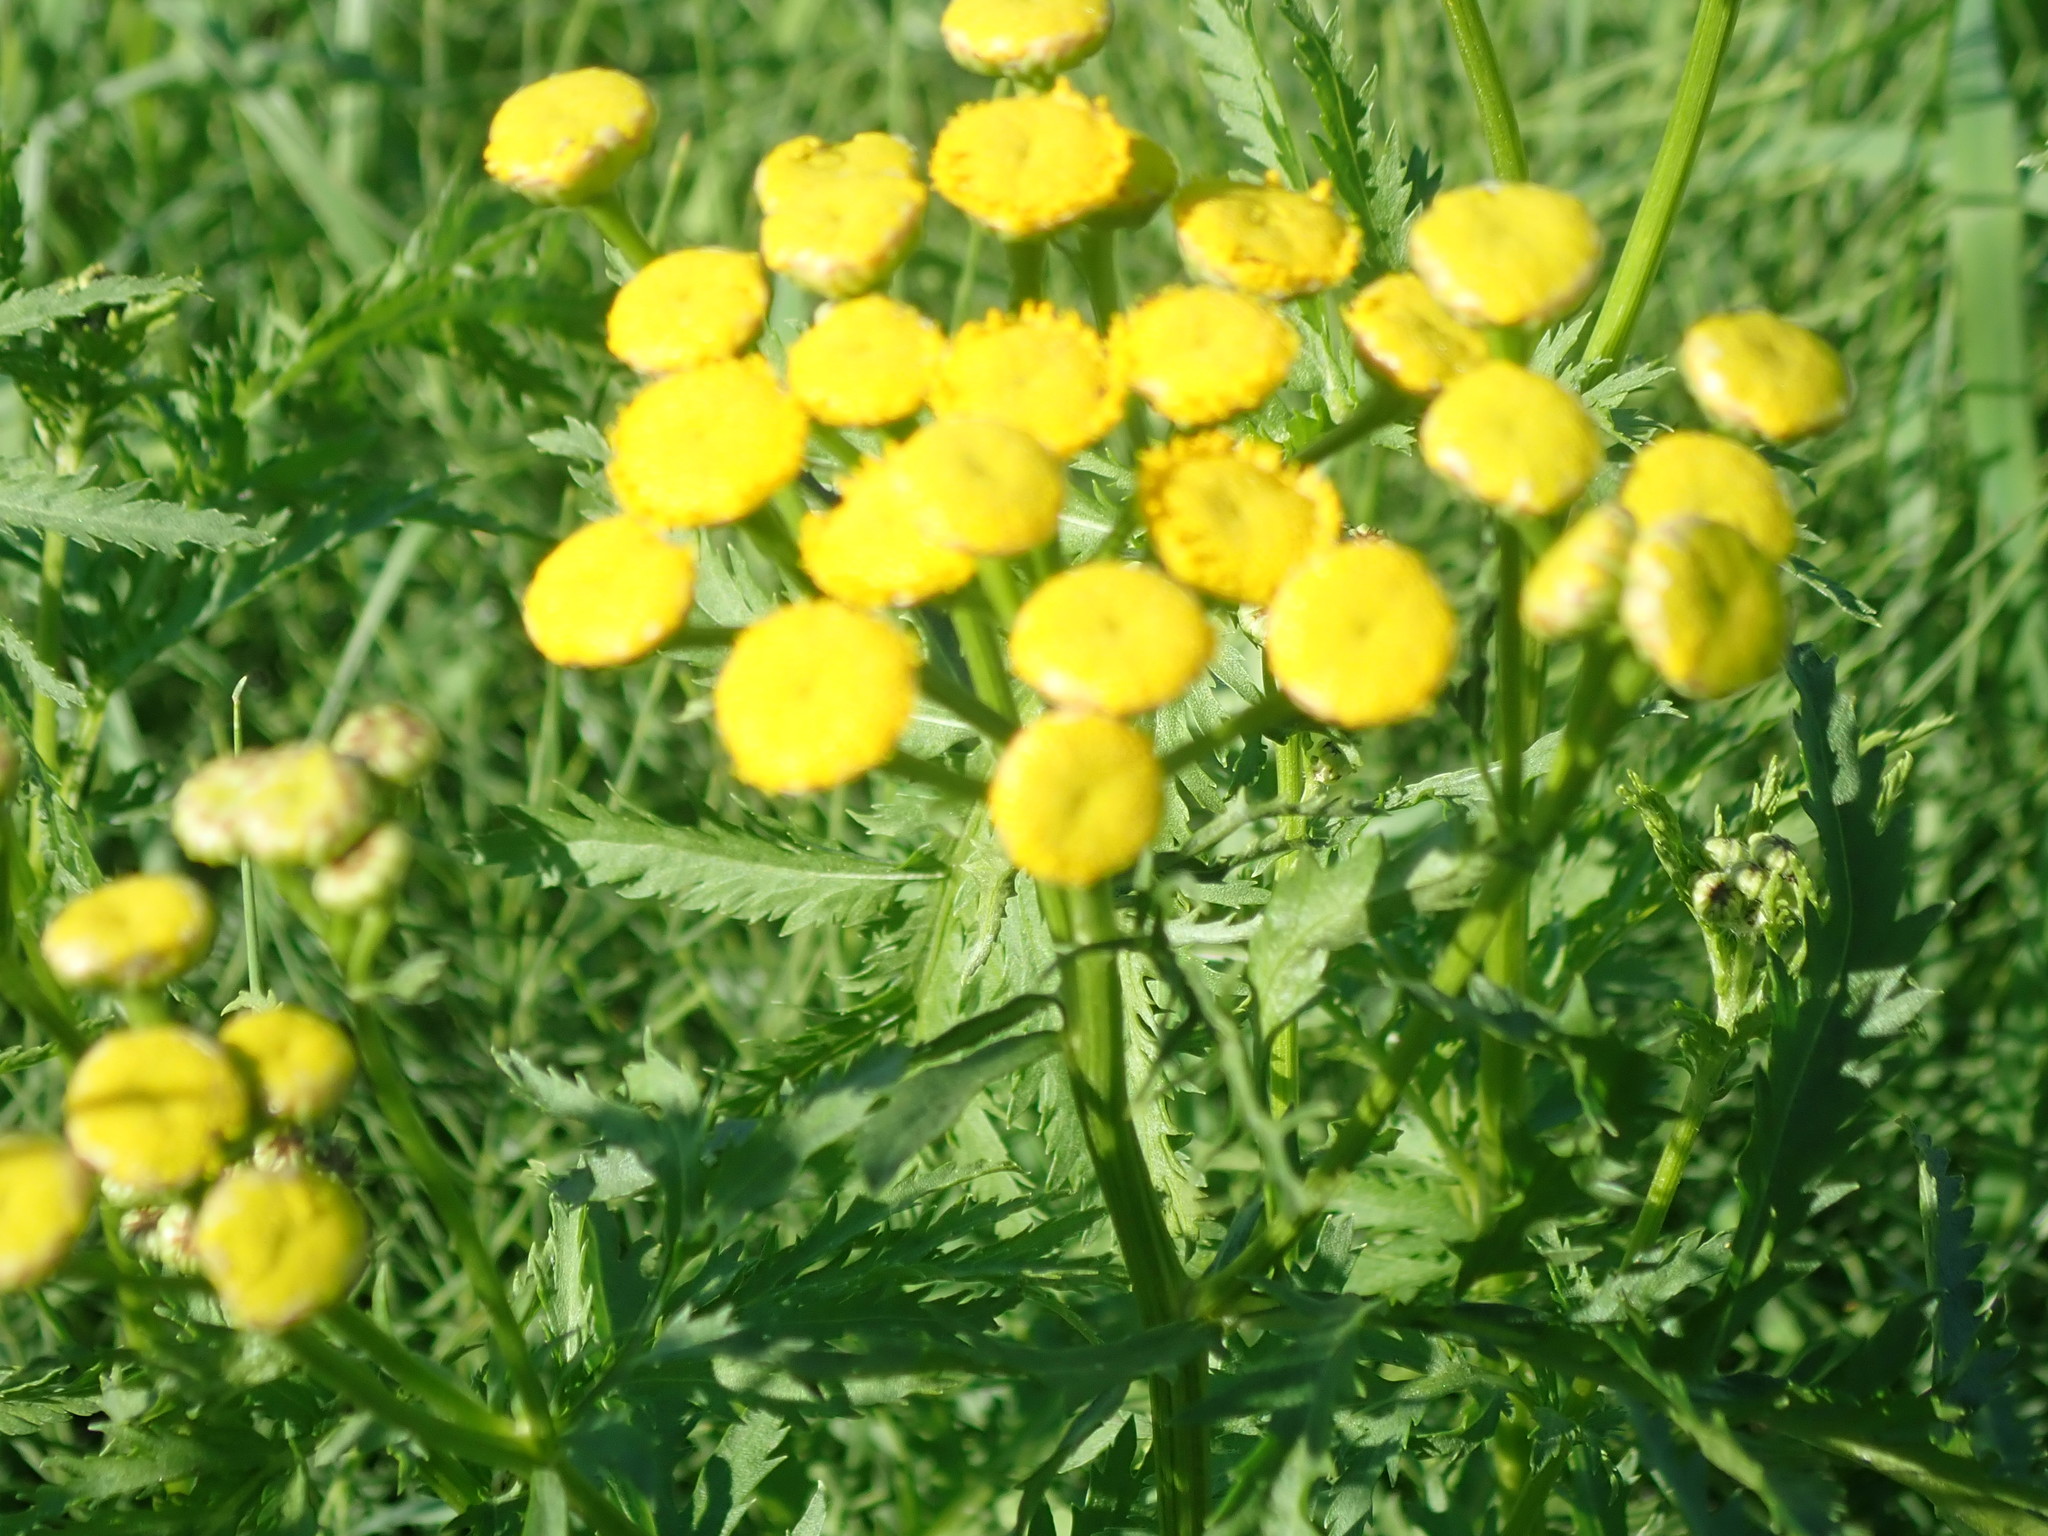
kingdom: Plantae
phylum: Tracheophyta
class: Magnoliopsida
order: Asterales
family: Asteraceae
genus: Tanacetum
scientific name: Tanacetum vulgare
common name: Common tansy
